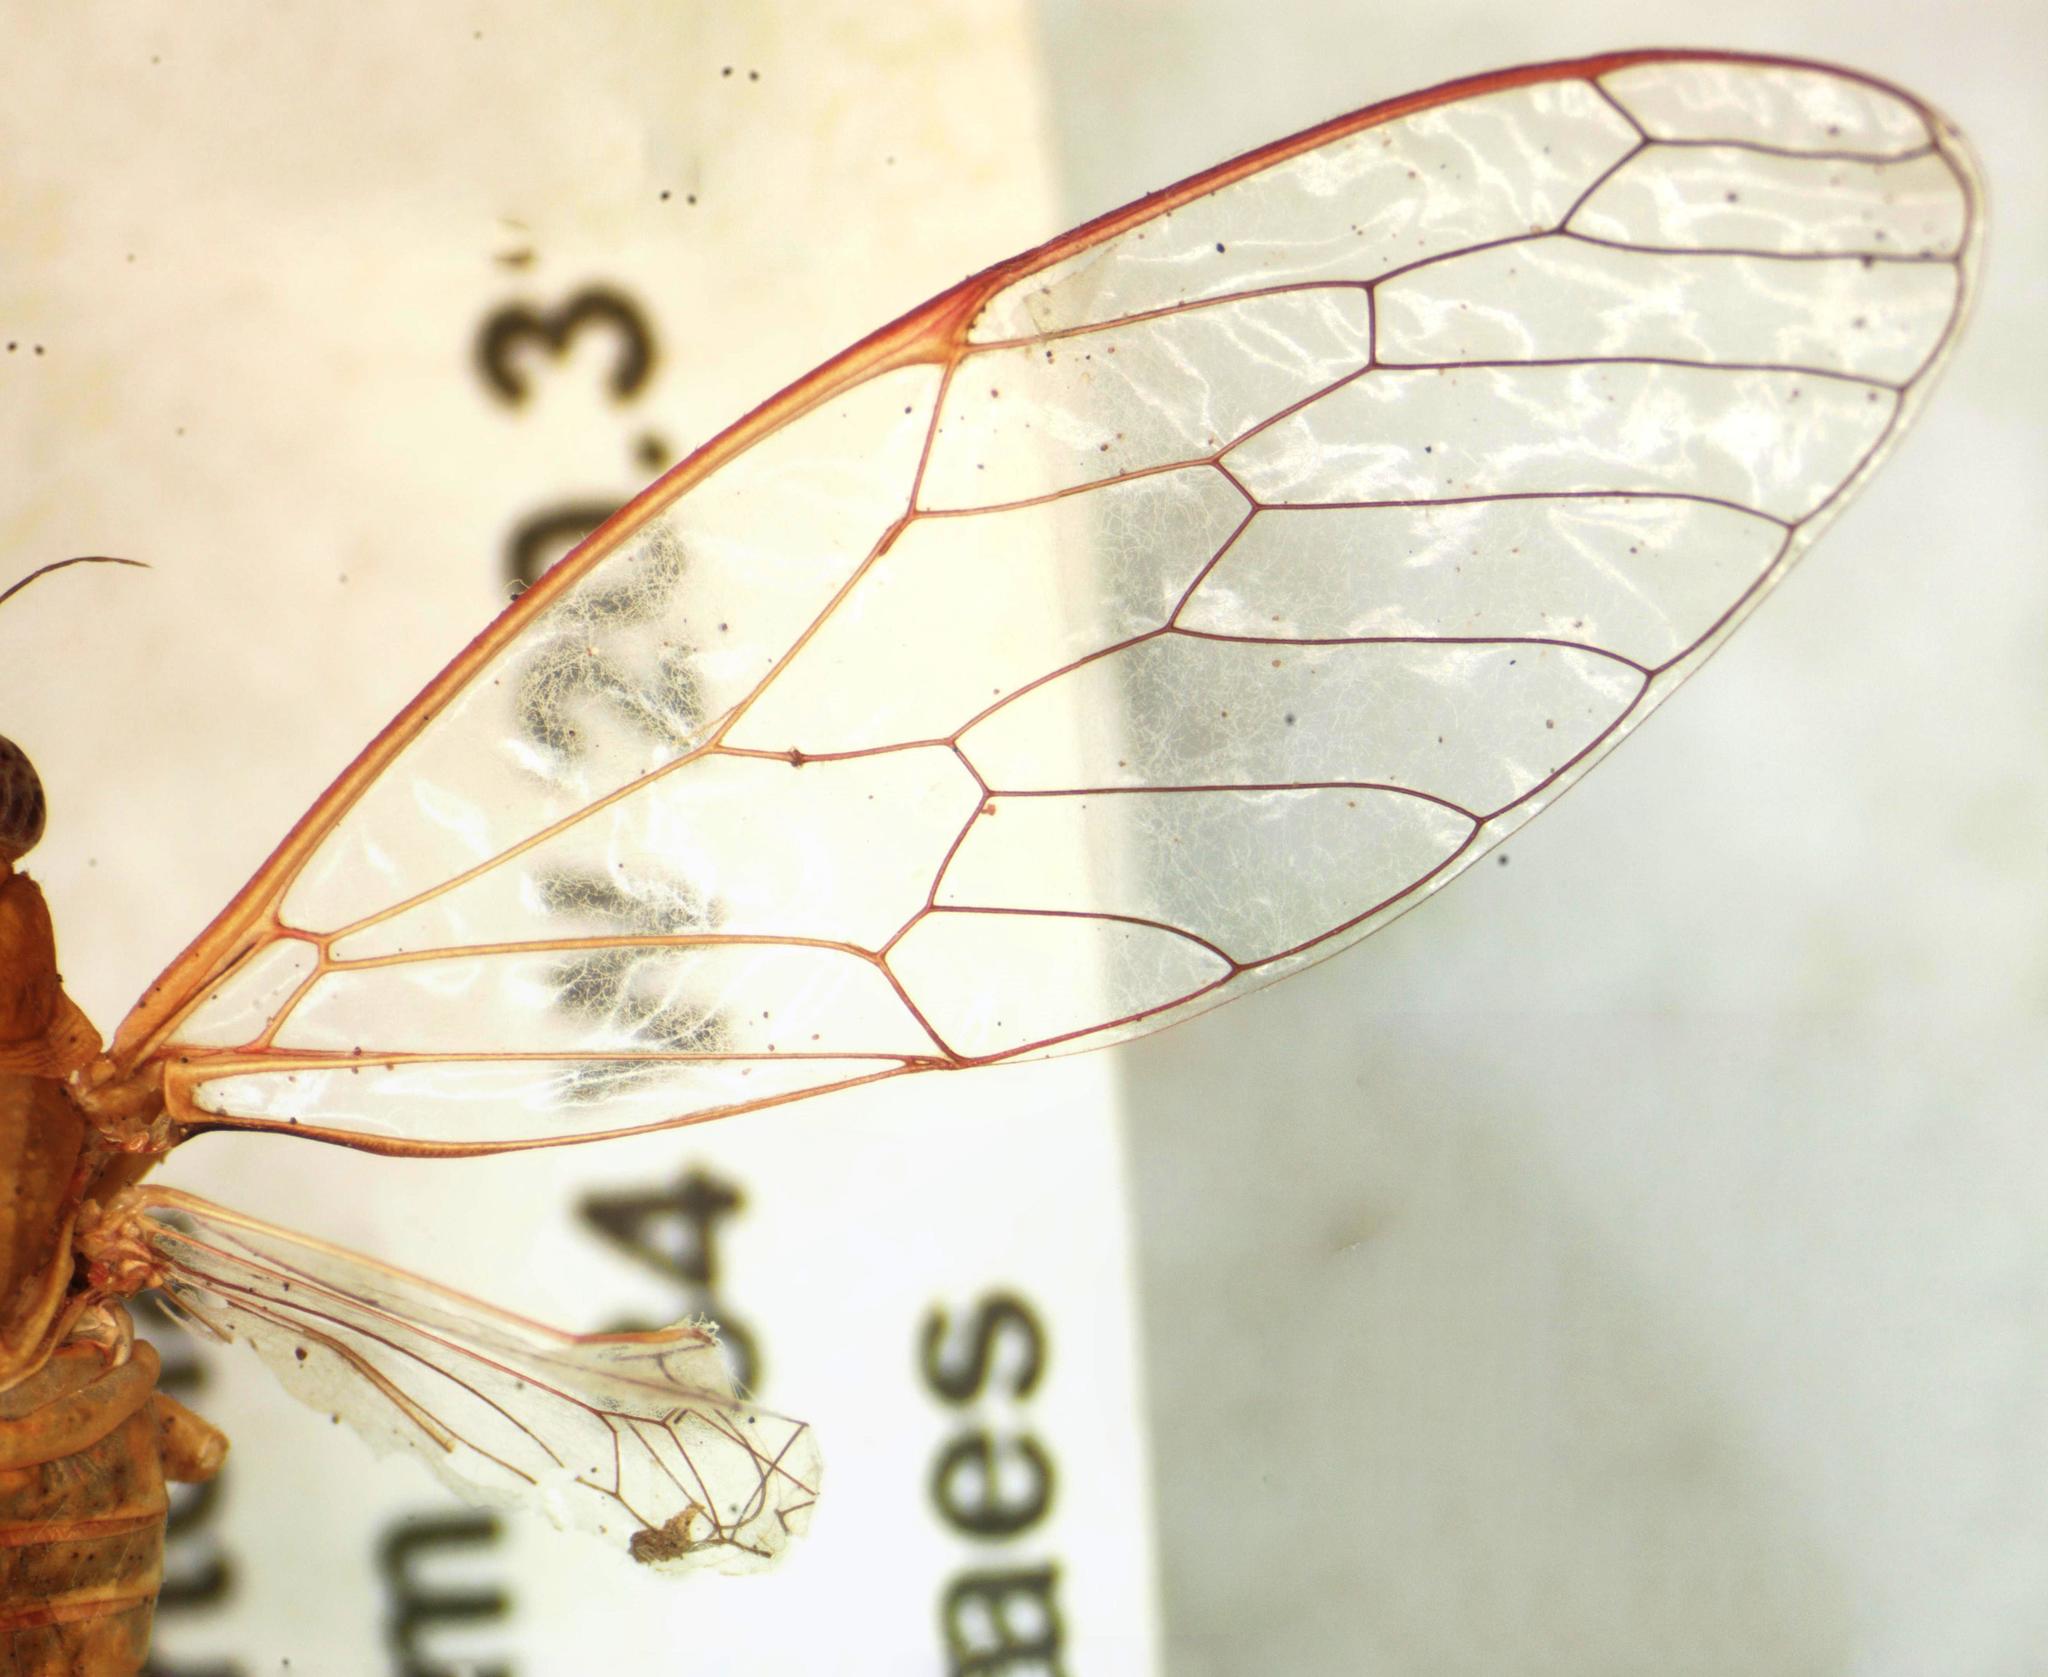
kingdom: Animalia
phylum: Arthropoda
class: Insecta
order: Hemiptera
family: Cicadidae
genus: Conibosa
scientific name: Conibosa occidentis
